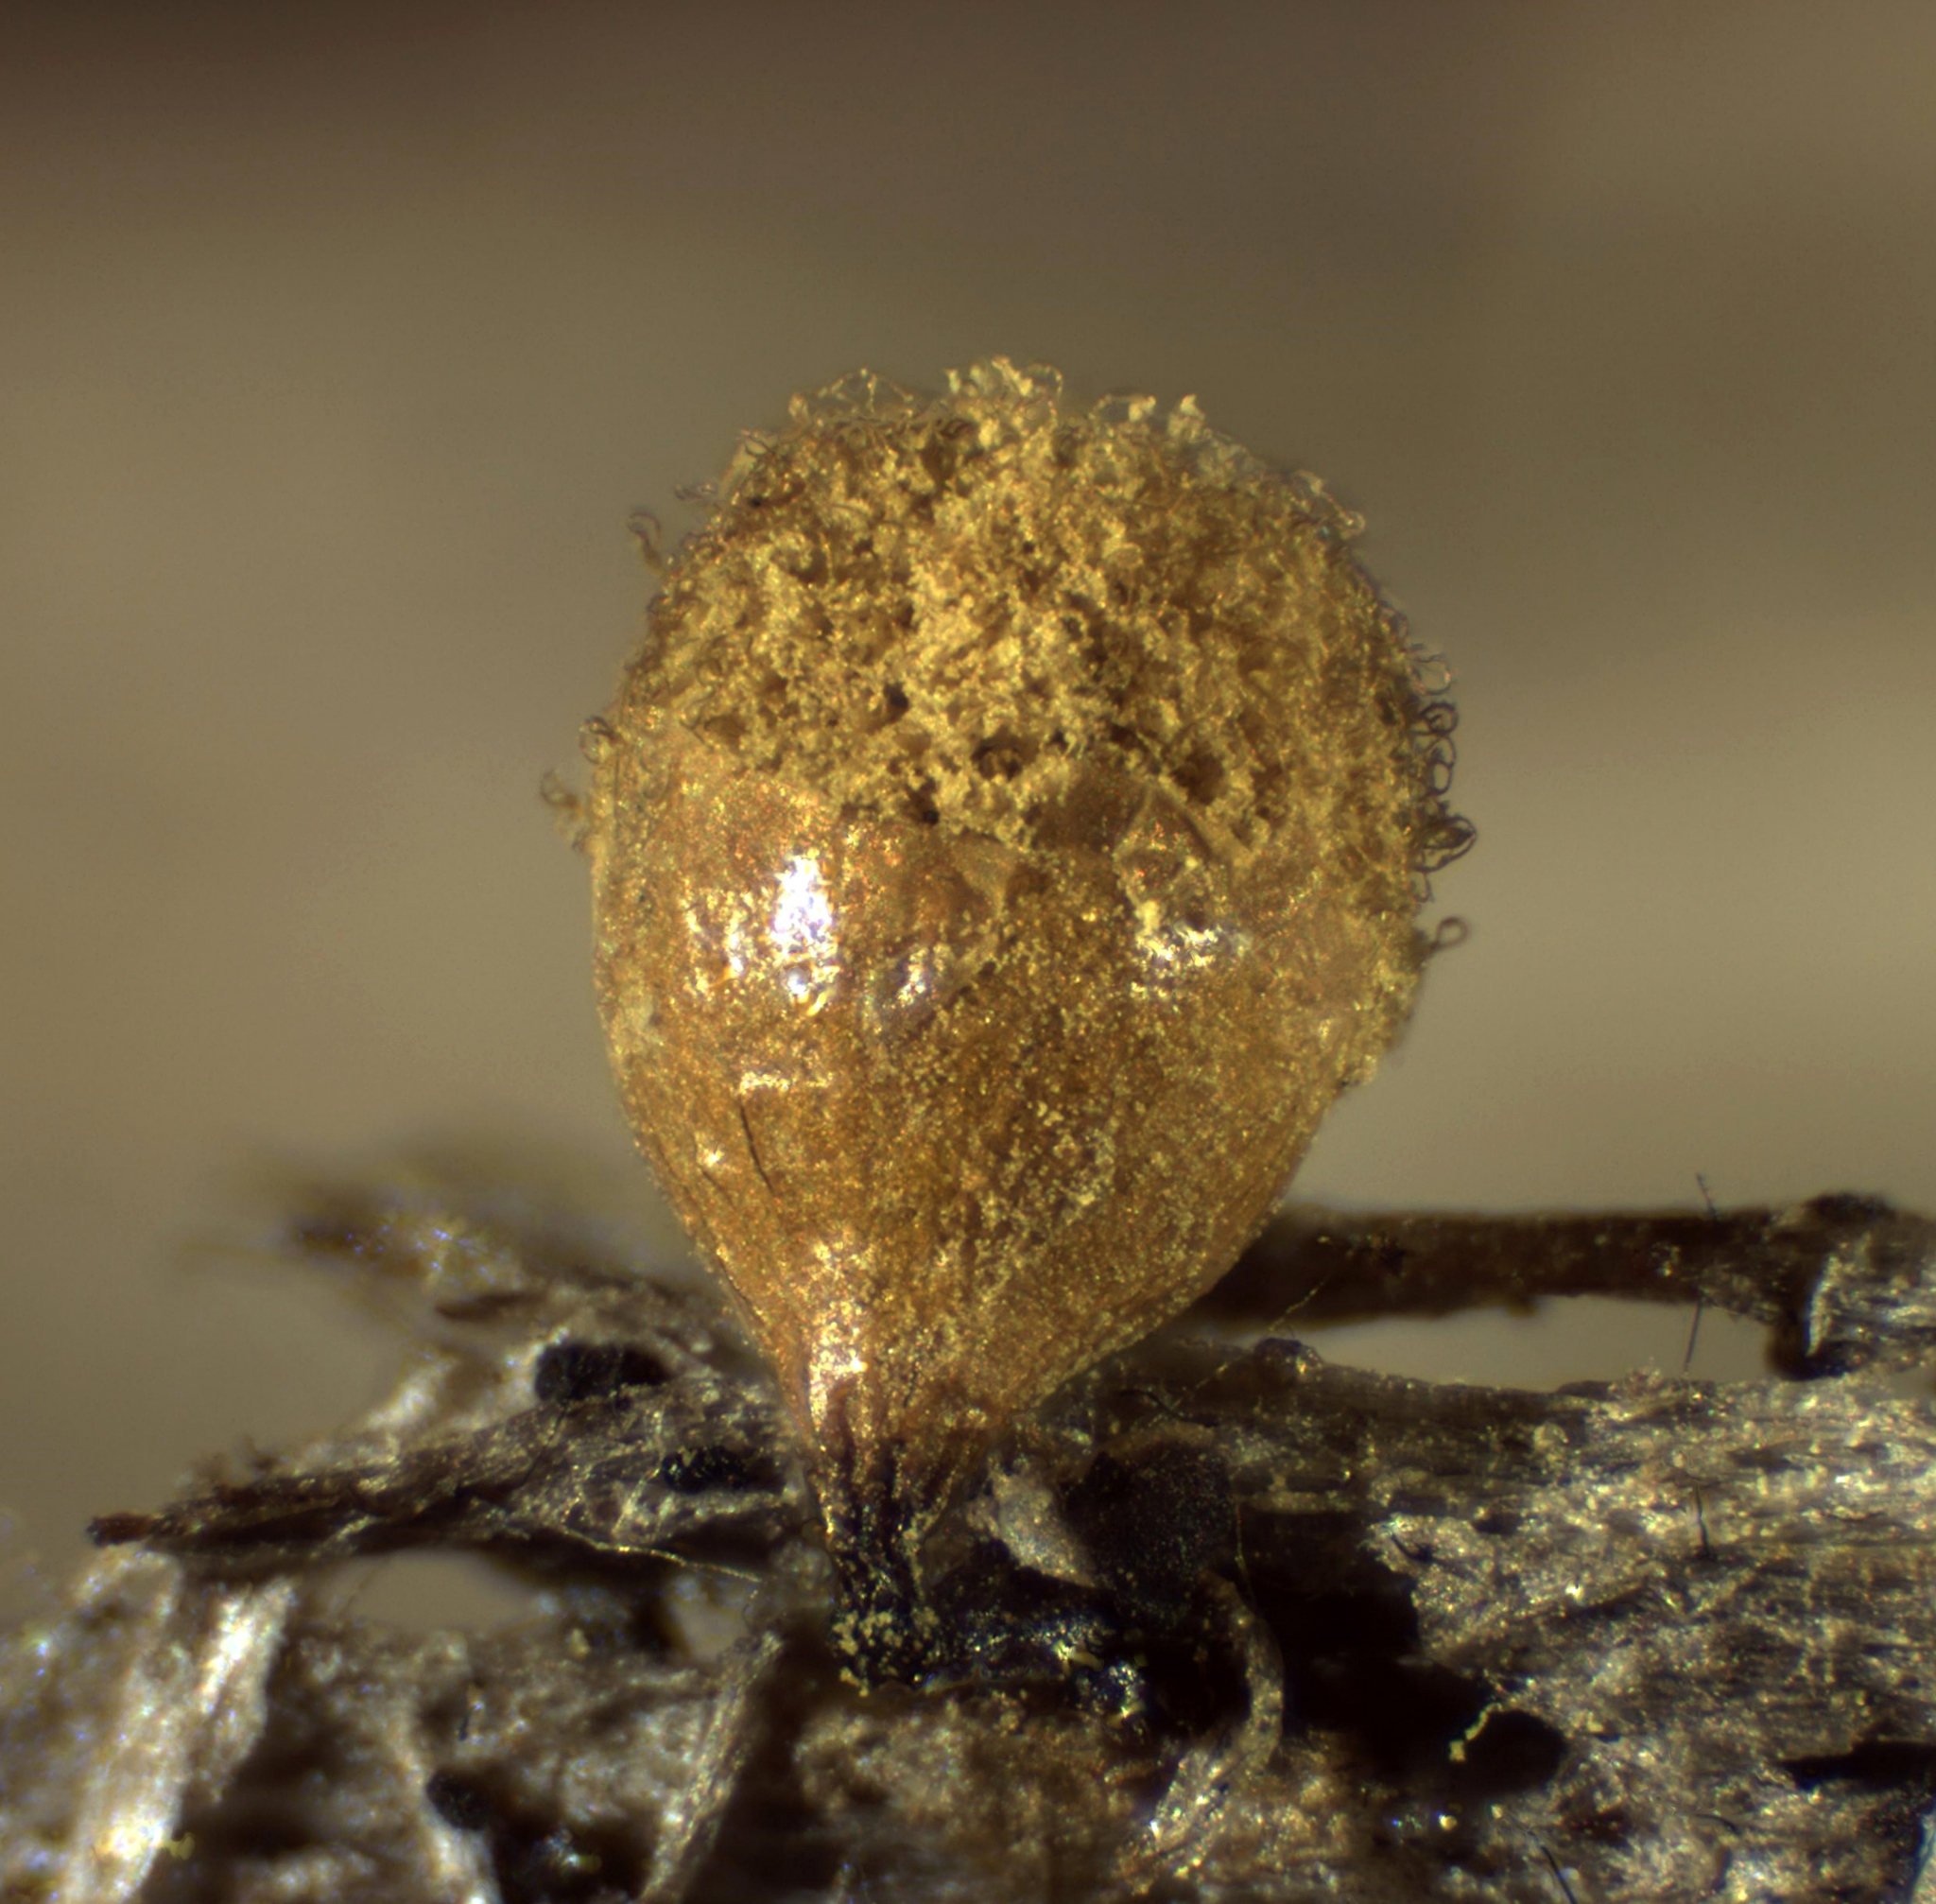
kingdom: Protozoa
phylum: Mycetozoa
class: Myxomycetes
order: Trichiales
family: Arcyriaceae
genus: Hemitrichia
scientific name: Hemitrichia calyculata
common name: Push pin slime mold
